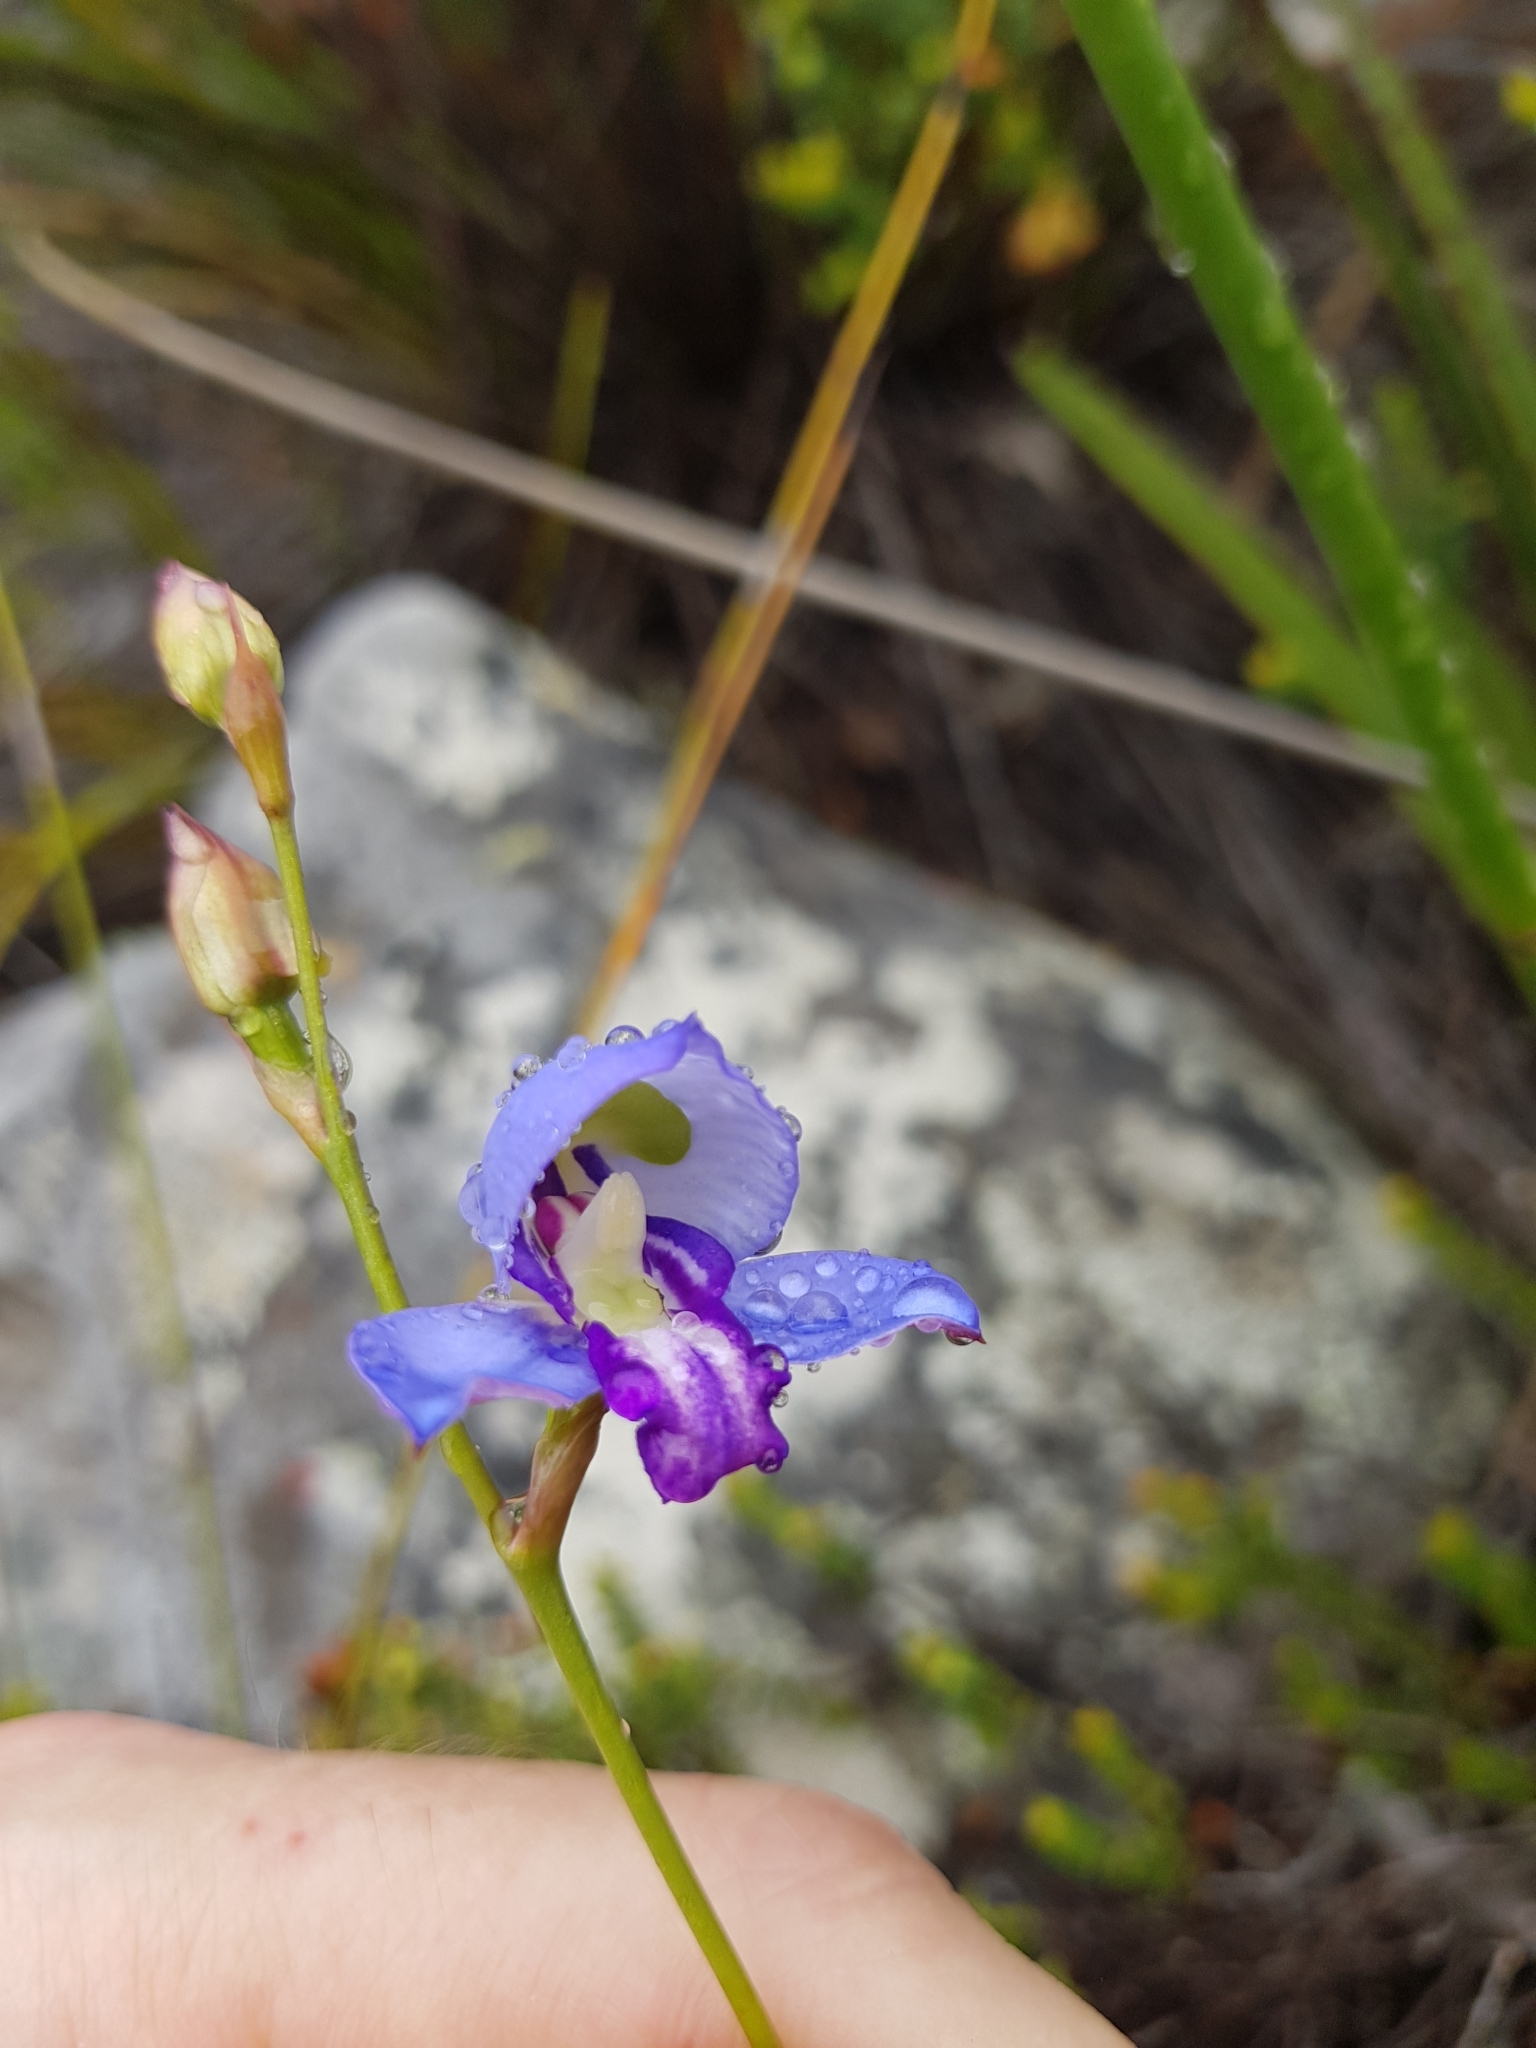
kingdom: Plantae
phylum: Tracheophyta
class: Liliopsida
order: Asparagales
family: Orchidaceae
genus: Disa
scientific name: Disa graminifolia
